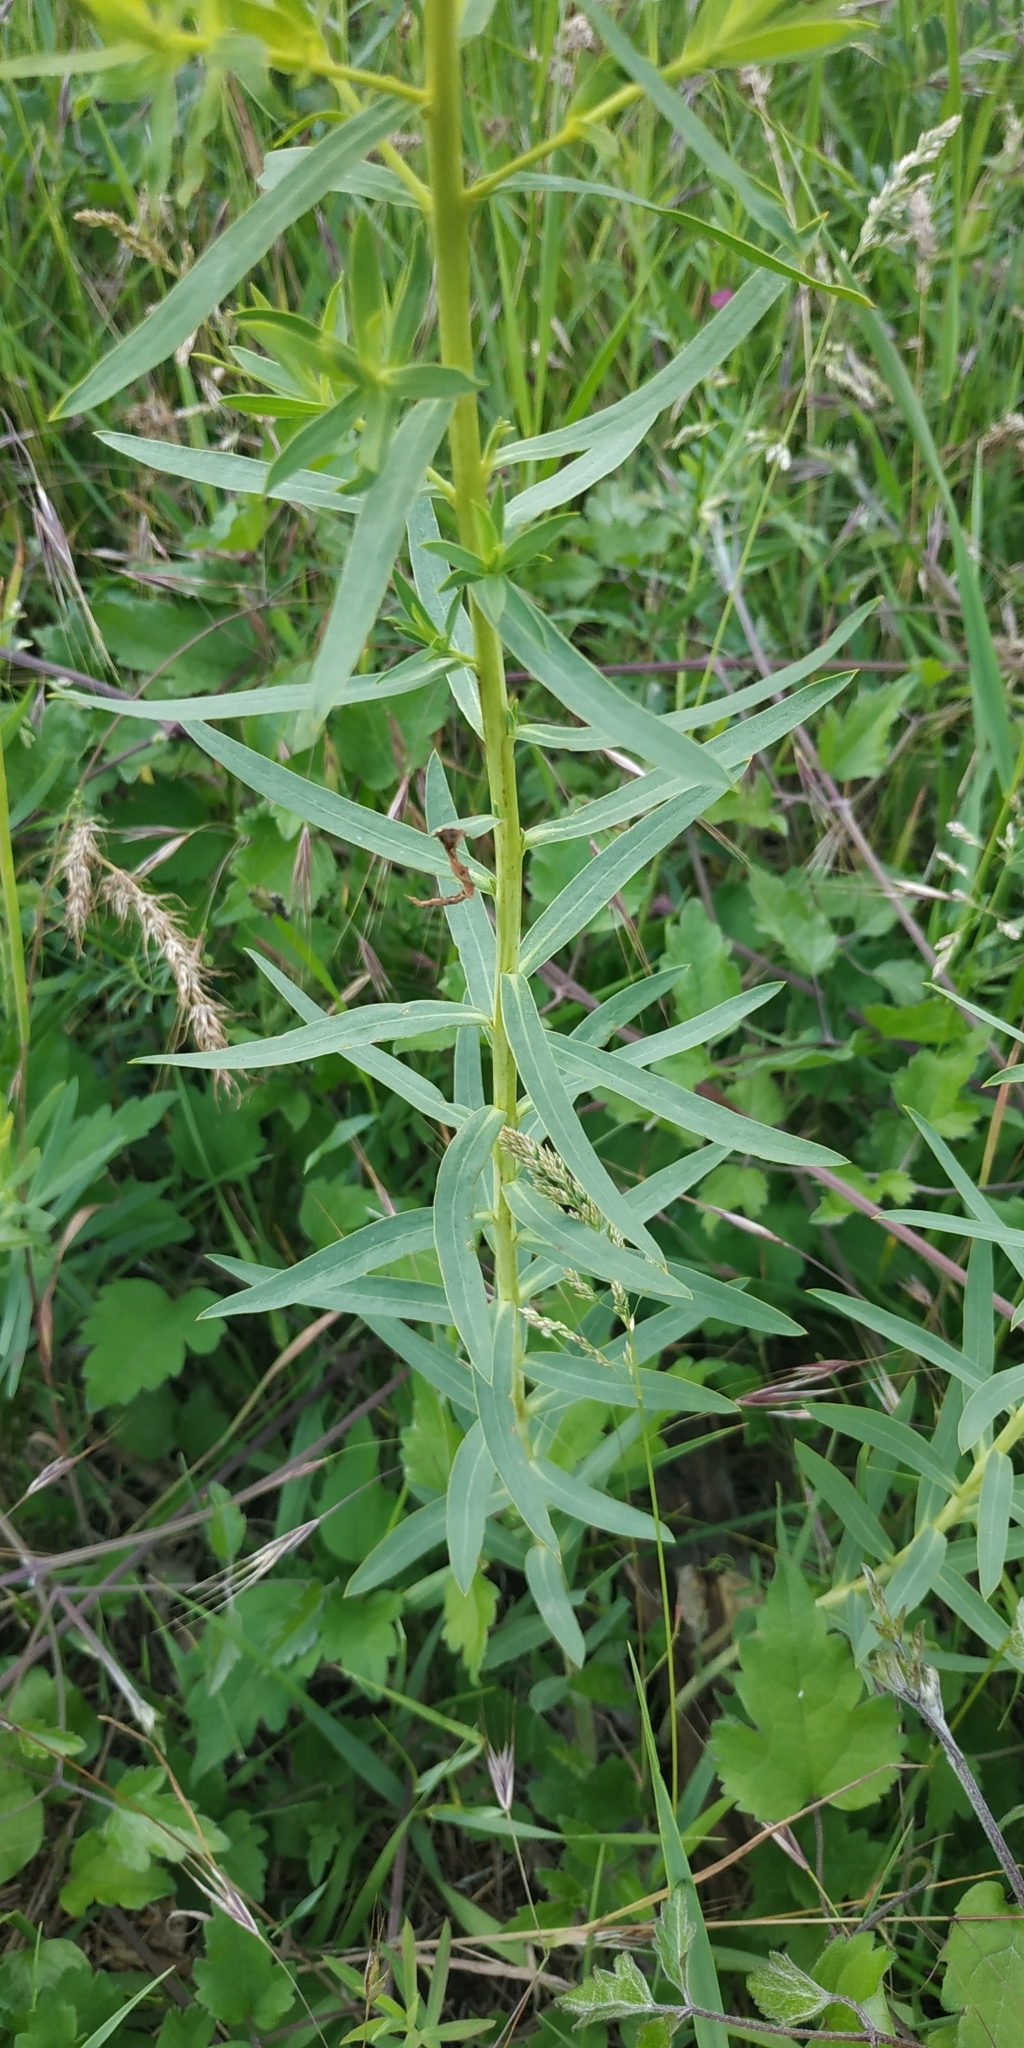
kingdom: Plantae
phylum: Tracheophyta
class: Magnoliopsida
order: Malpighiales
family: Euphorbiaceae
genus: Euphorbia
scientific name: Euphorbia virgata
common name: Leafy spurge
